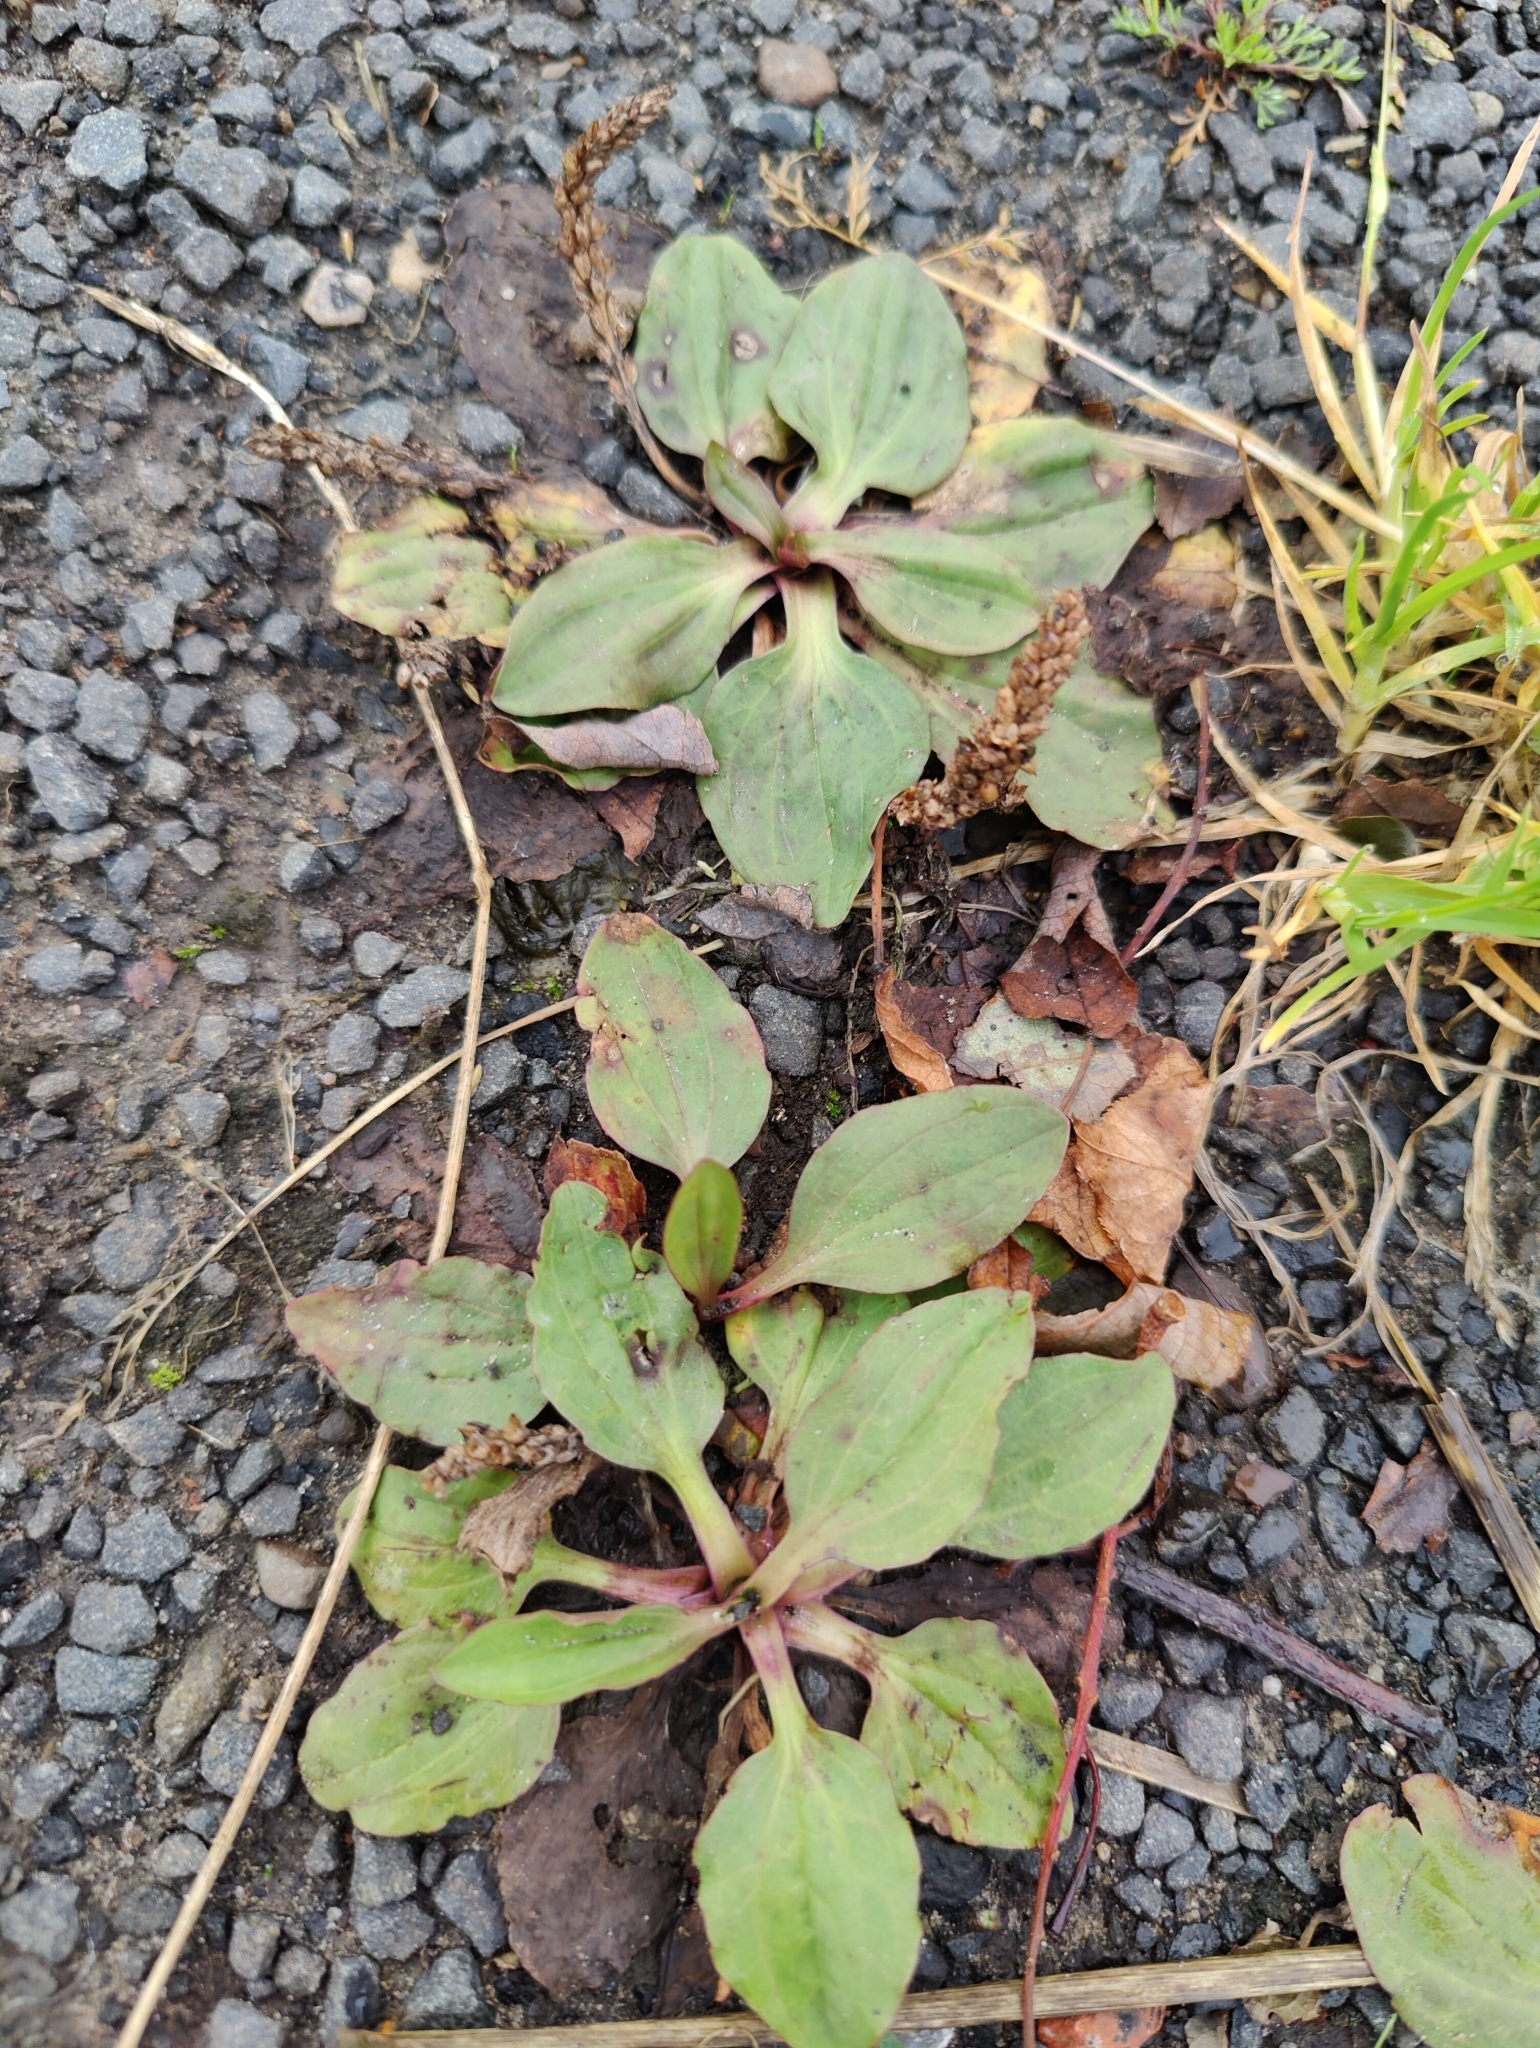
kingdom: Plantae
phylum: Tracheophyta
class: Magnoliopsida
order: Lamiales
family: Plantaginaceae
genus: Plantago
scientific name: Plantago major
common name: Common plantain
